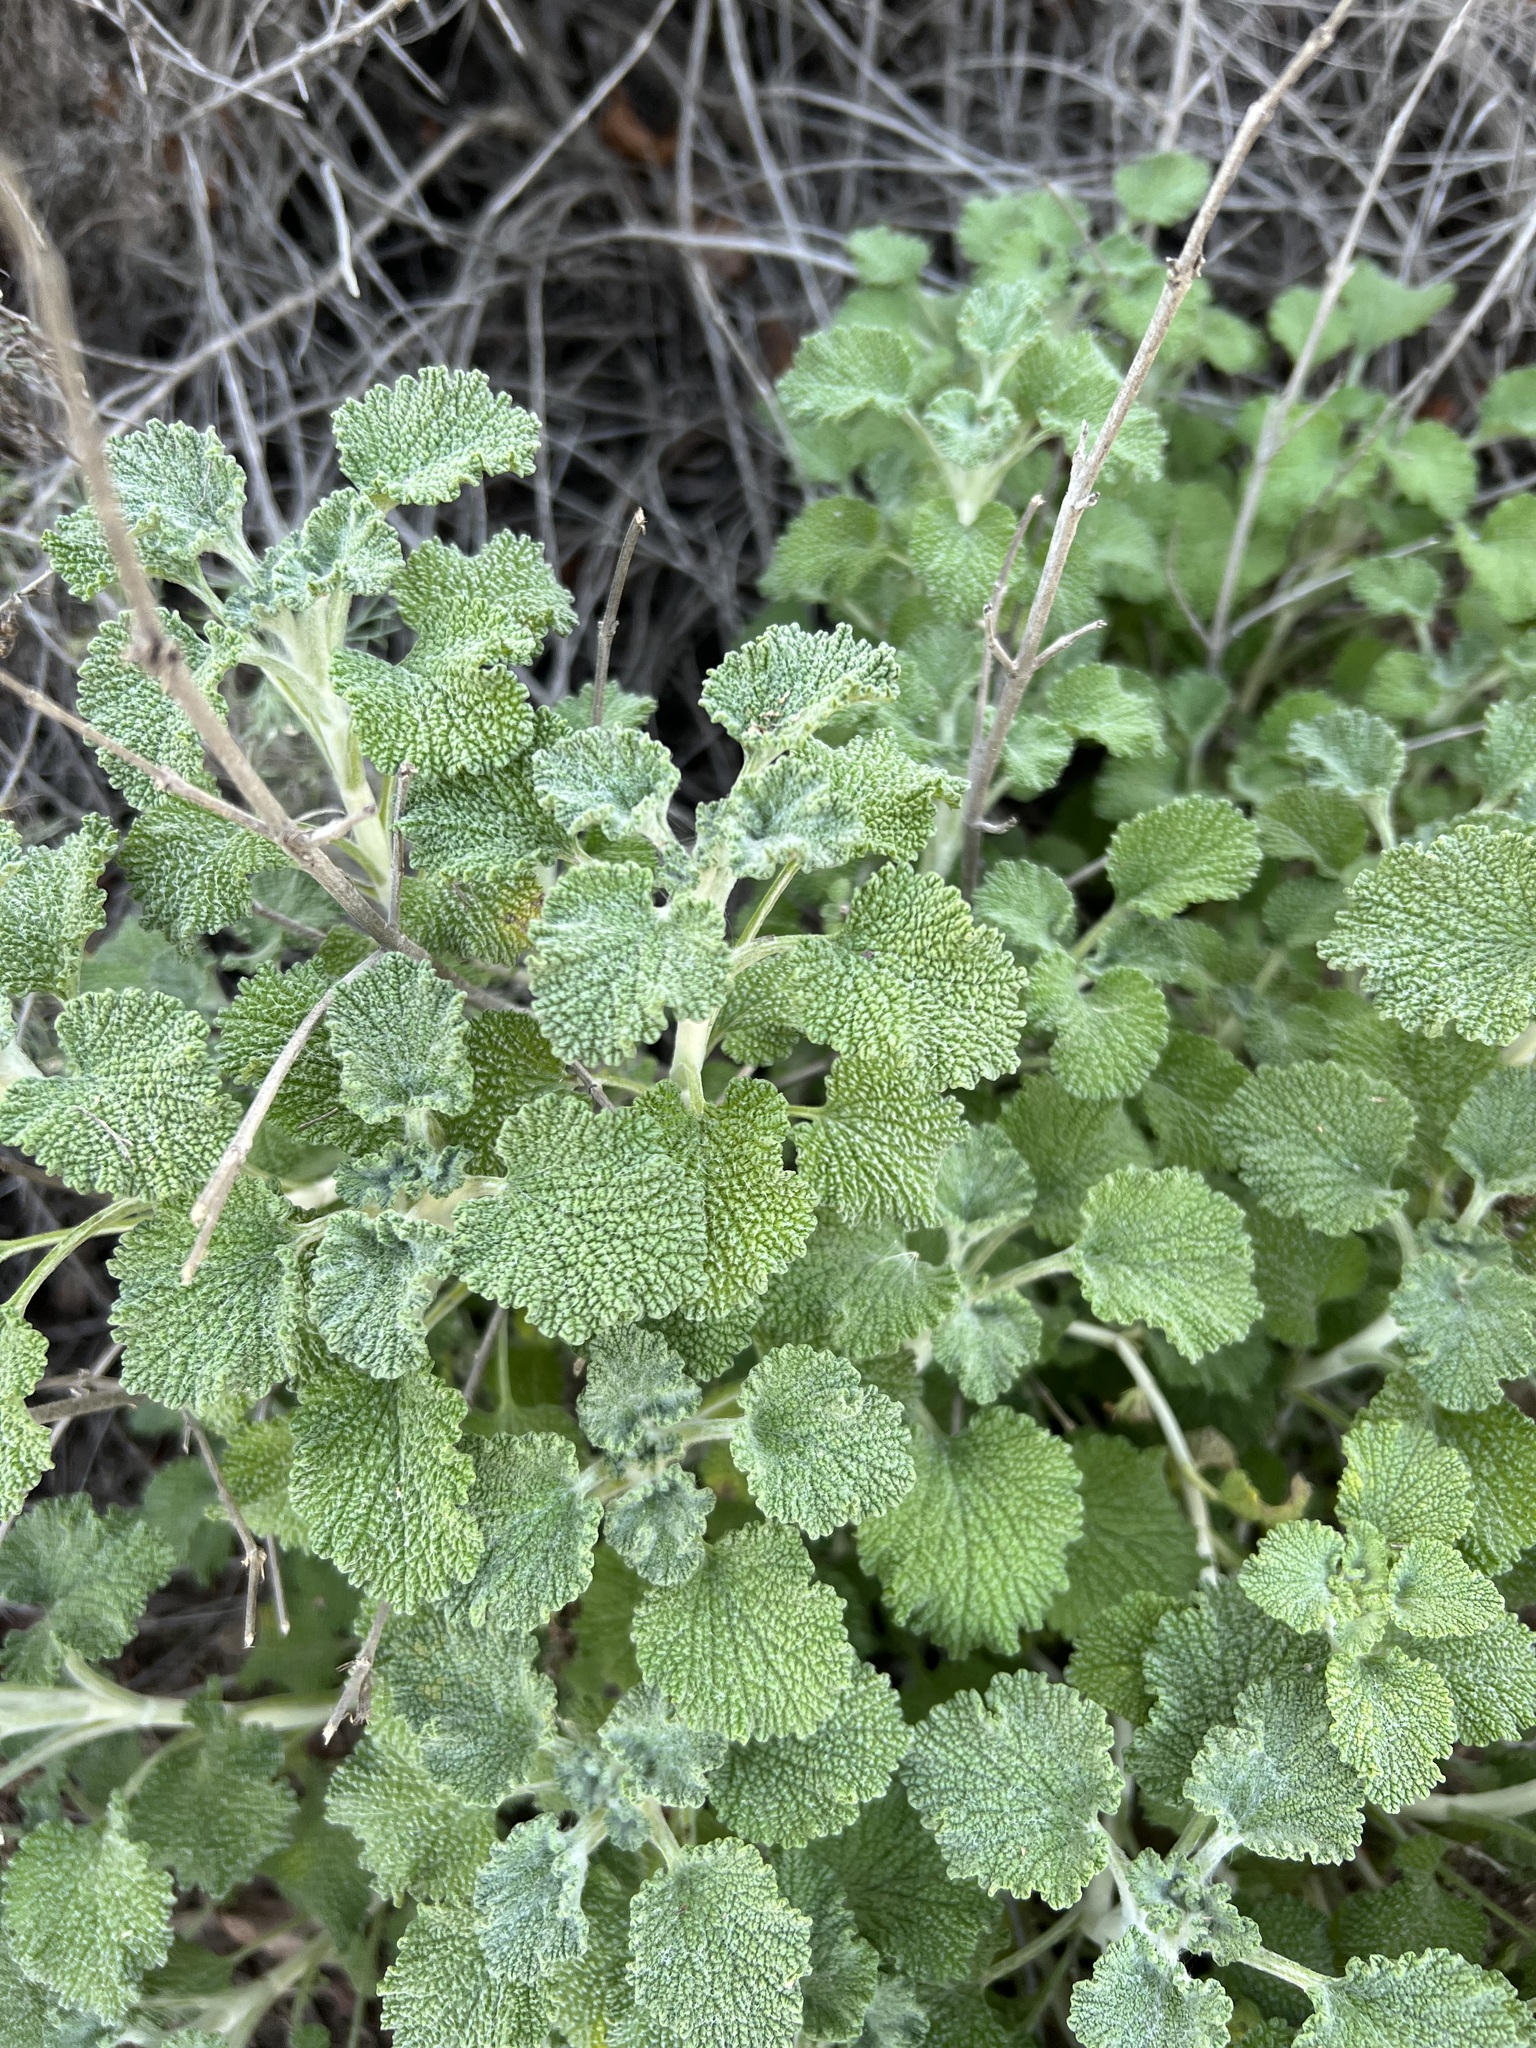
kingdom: Plantae
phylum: Tracheophyta
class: Magnoliopsida
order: Lamiales
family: Lamiaceae
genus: Marrubium
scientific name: Marrubium vulgare
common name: Horehound
